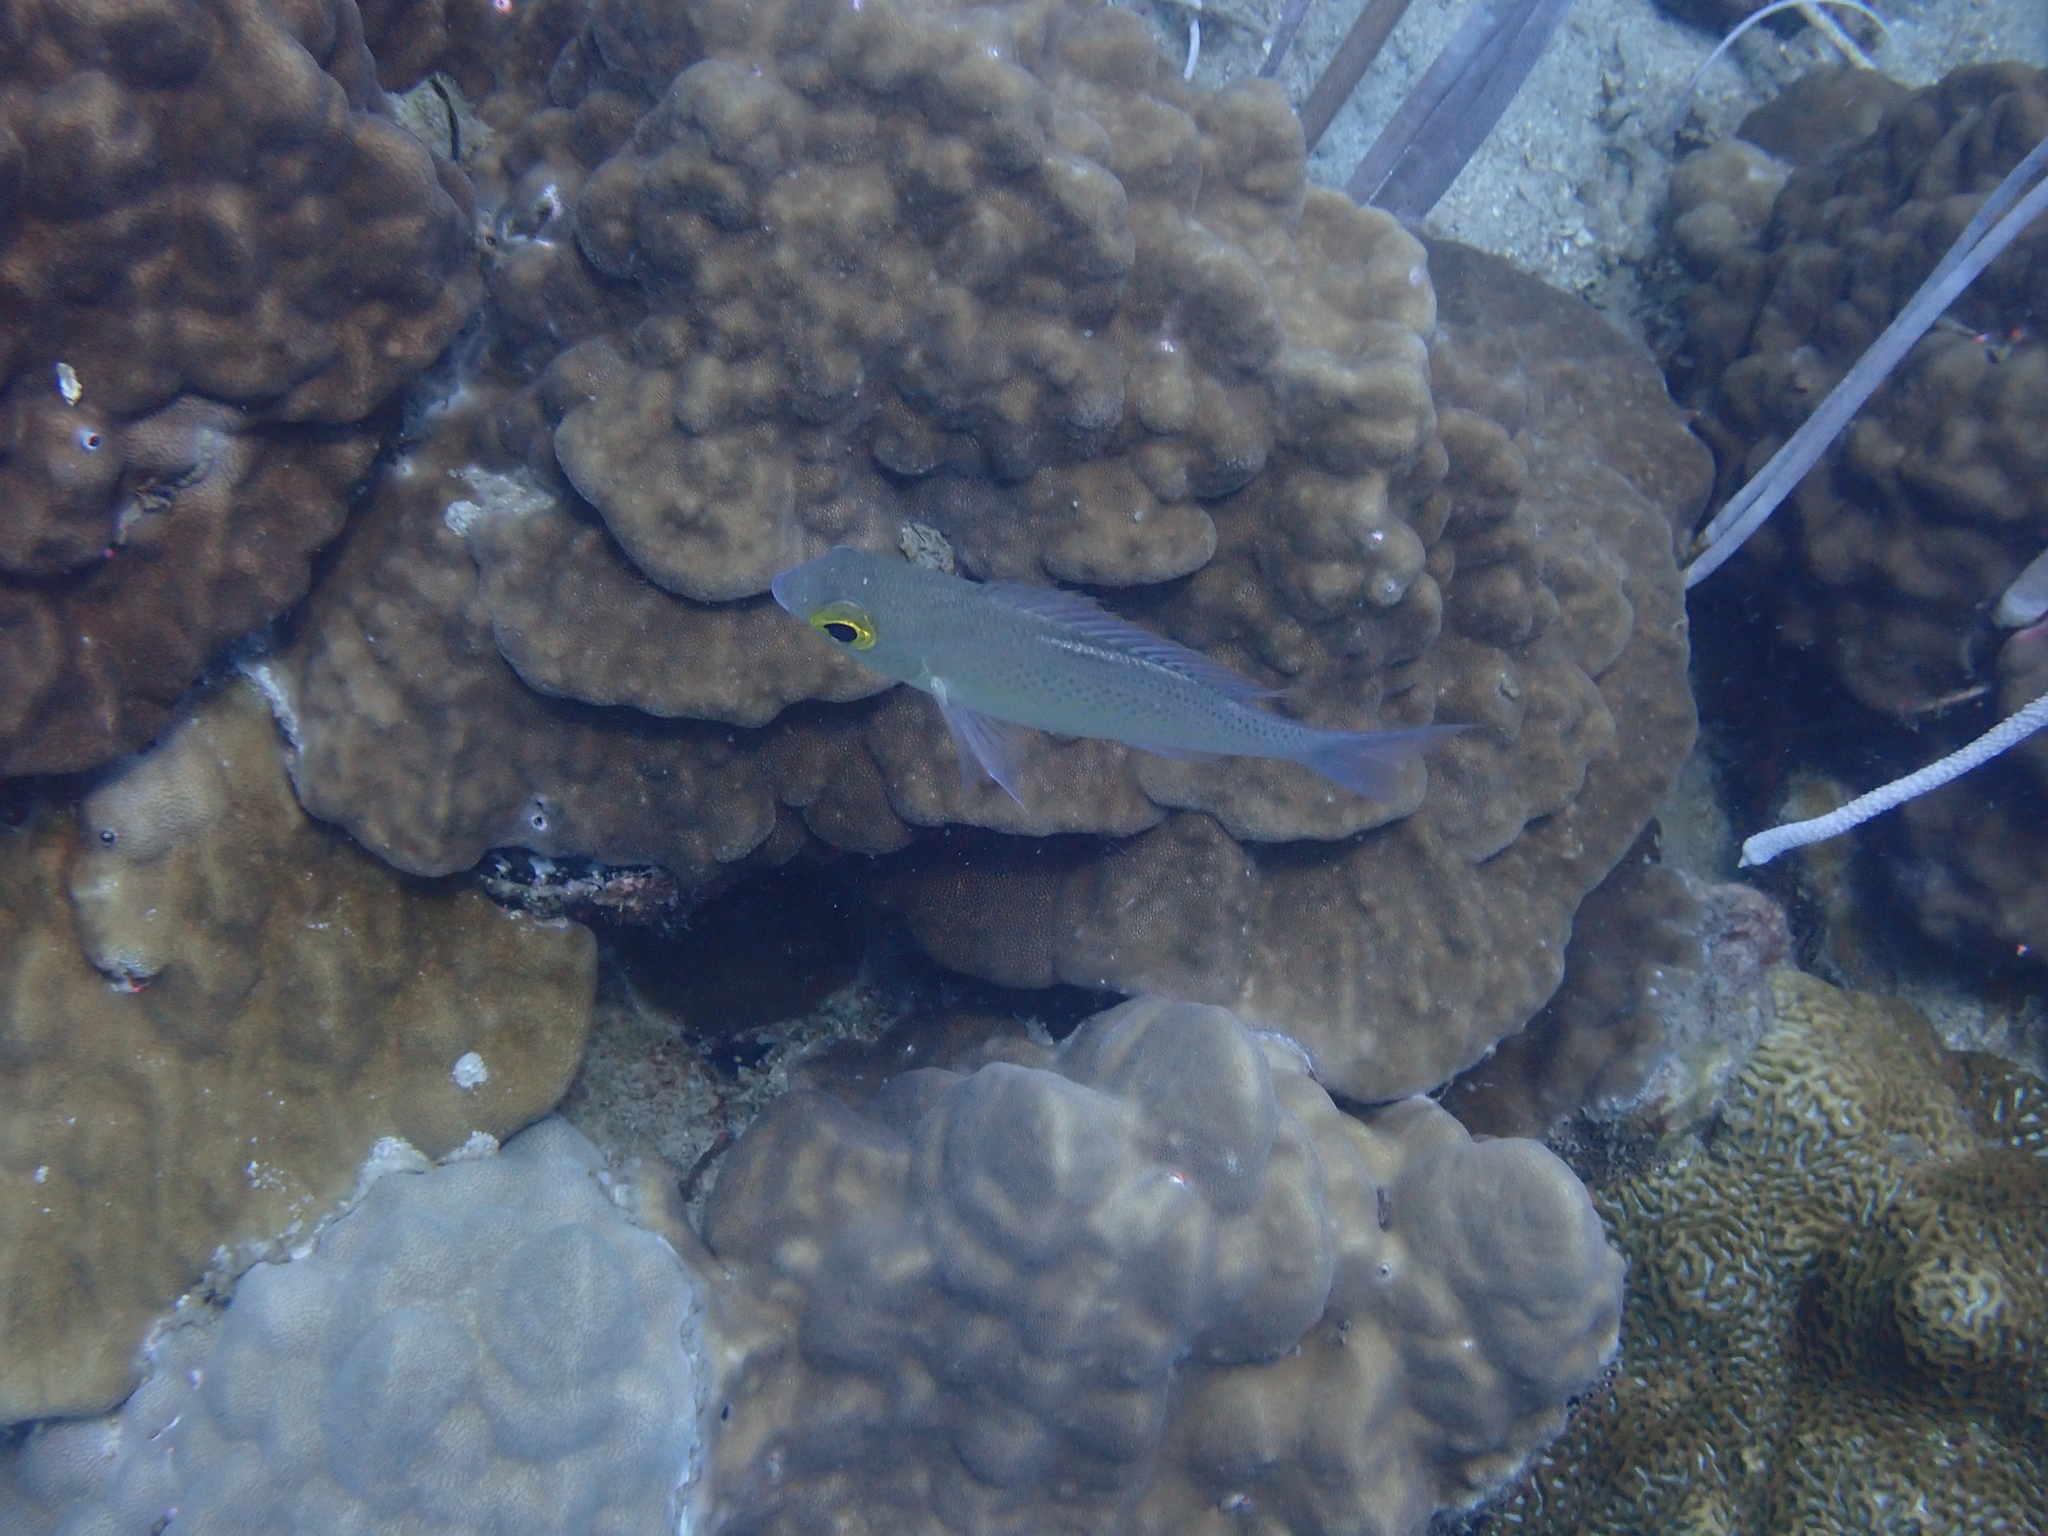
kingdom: Animalia
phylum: Chordata
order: Perciformes
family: Nemipteridae
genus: Scolopsis
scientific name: Scolopsis ciliata
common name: Ciliate spinecheek
